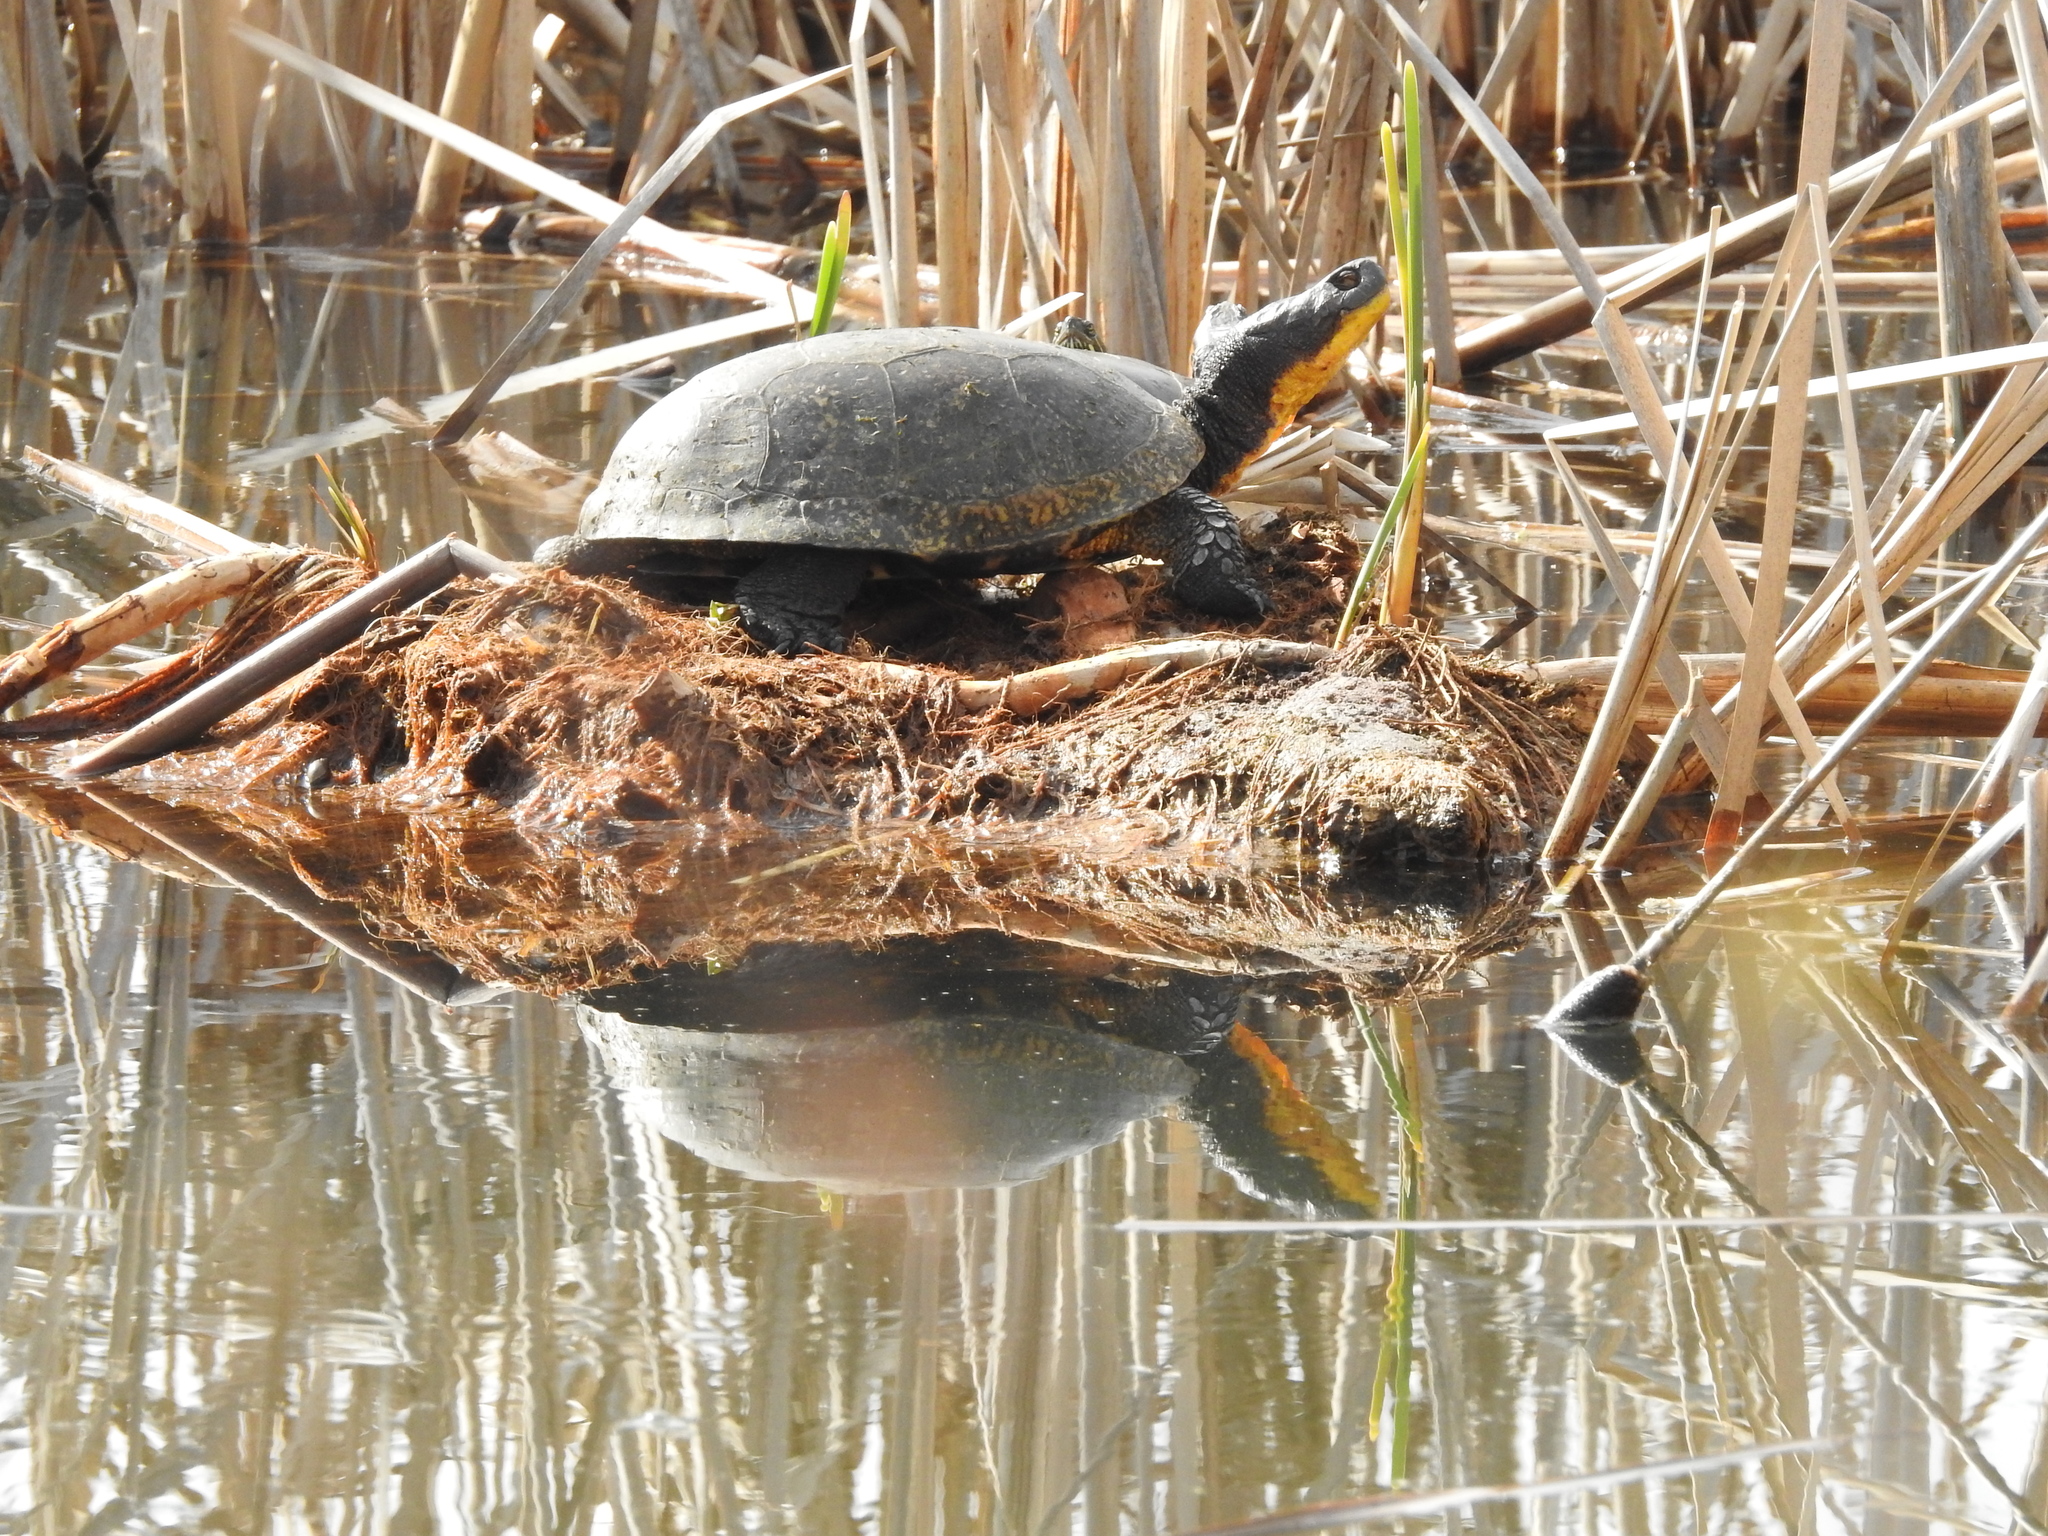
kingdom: Animalia
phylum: Chordata
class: Testudines
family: Emydidae
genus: Emys
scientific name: Emys blandingii
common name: Blanding's turtle
